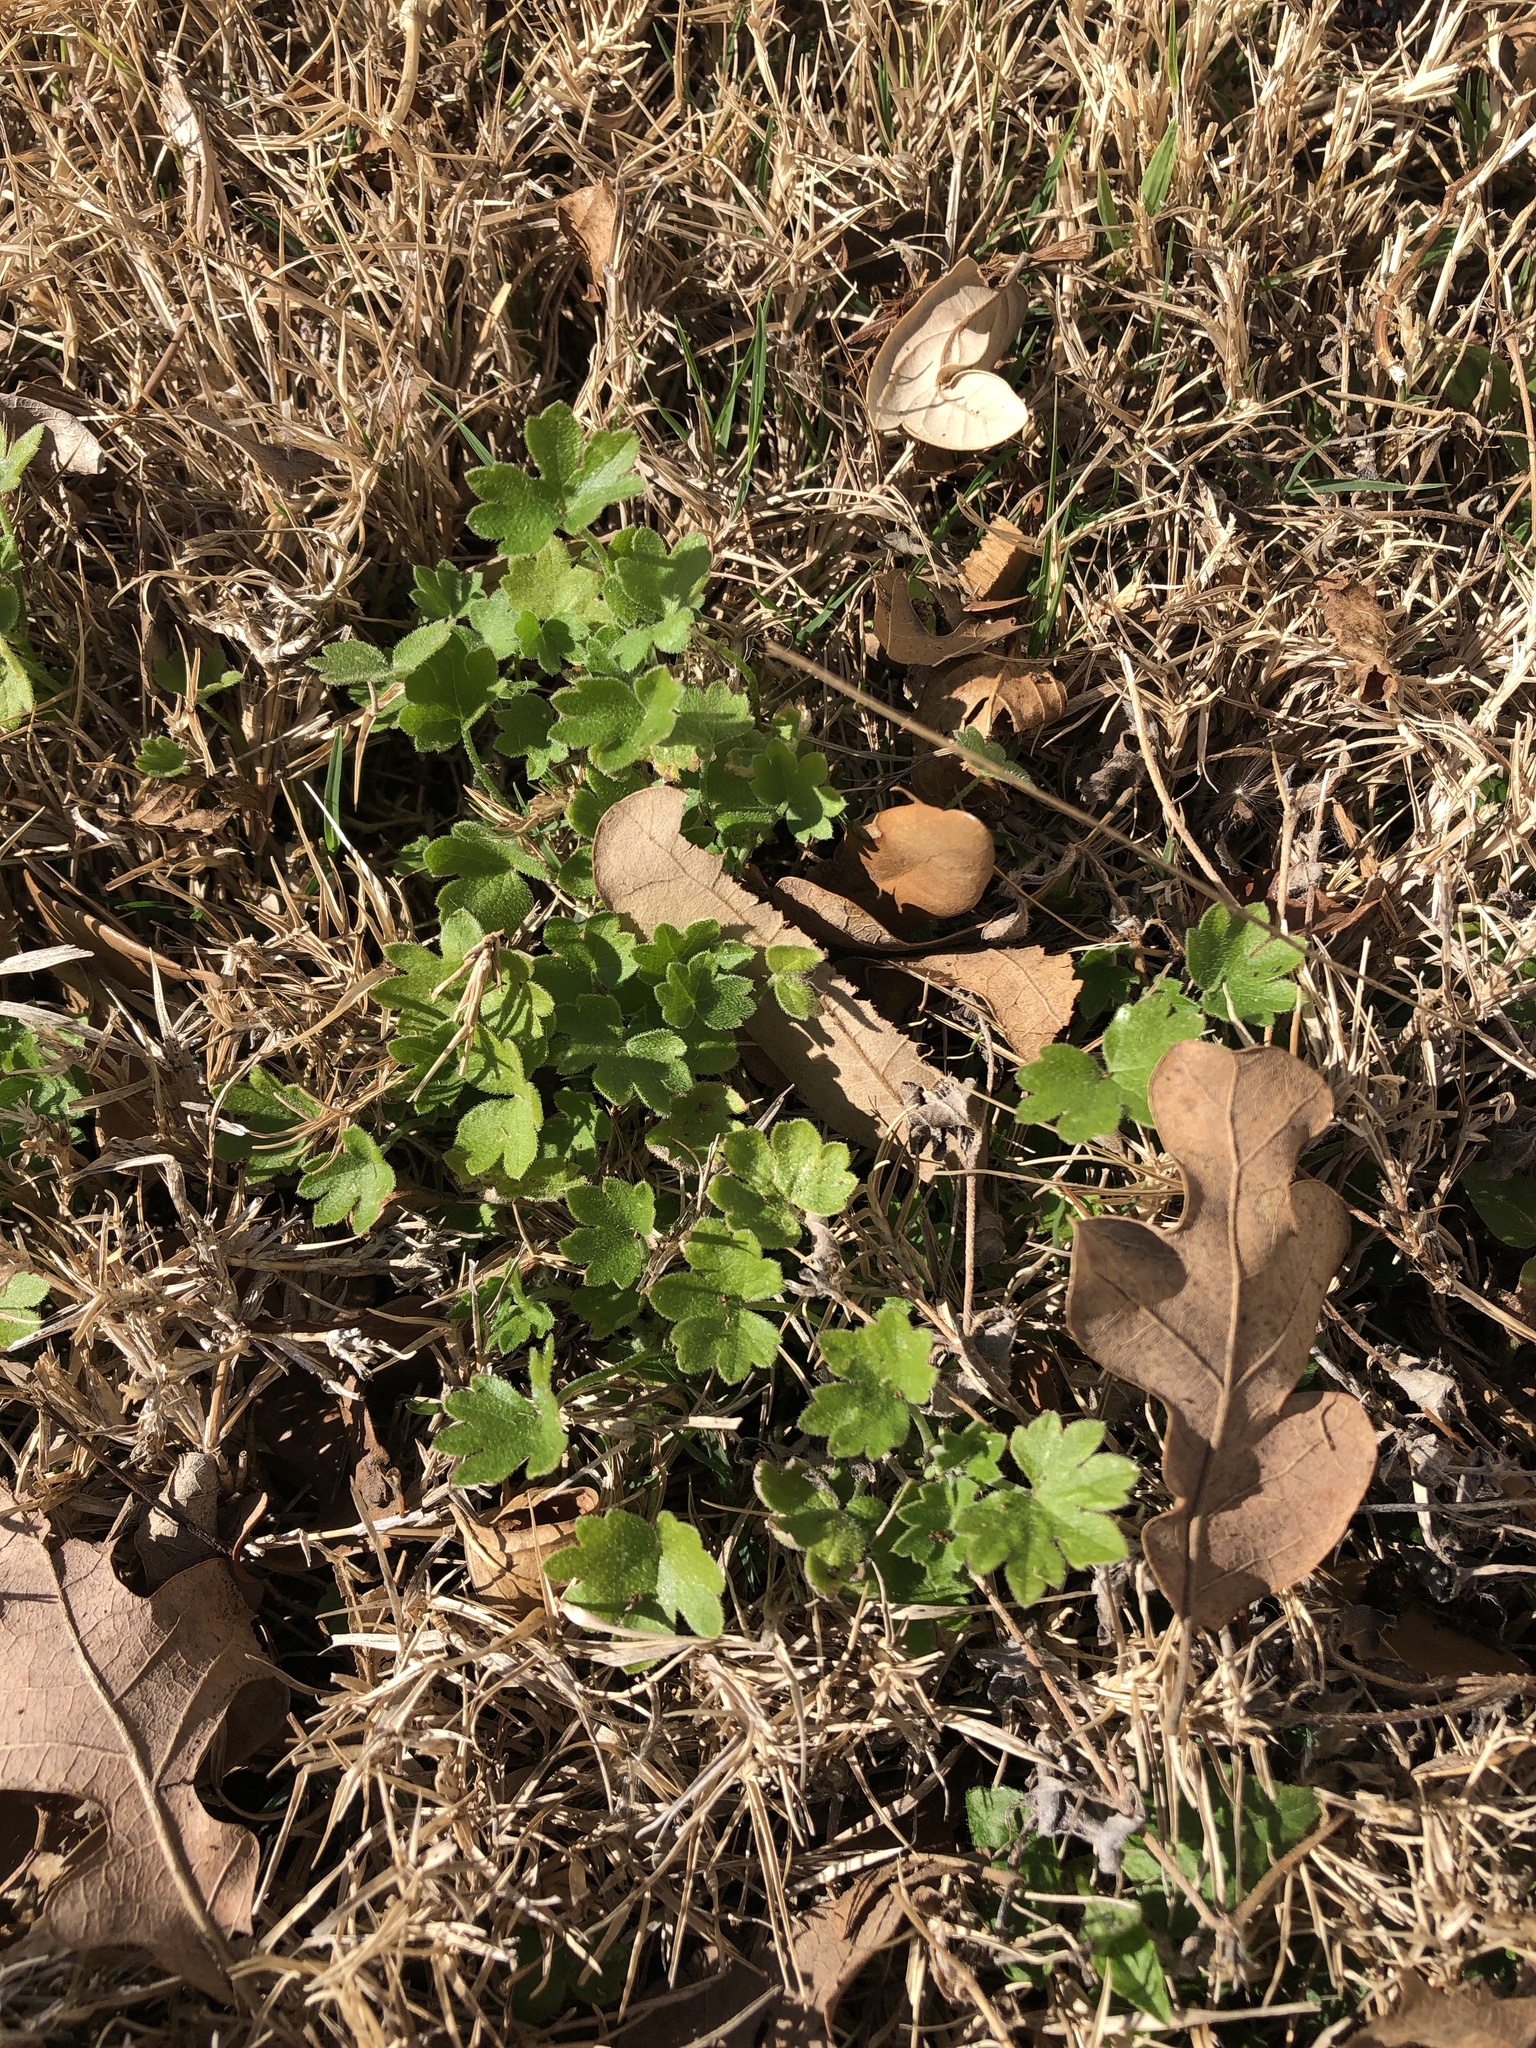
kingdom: Plantae
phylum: Tracheophyta
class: Magnoliopsida
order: Apiales
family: Apiaceae
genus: Bowlesia
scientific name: Bowlesia incana
